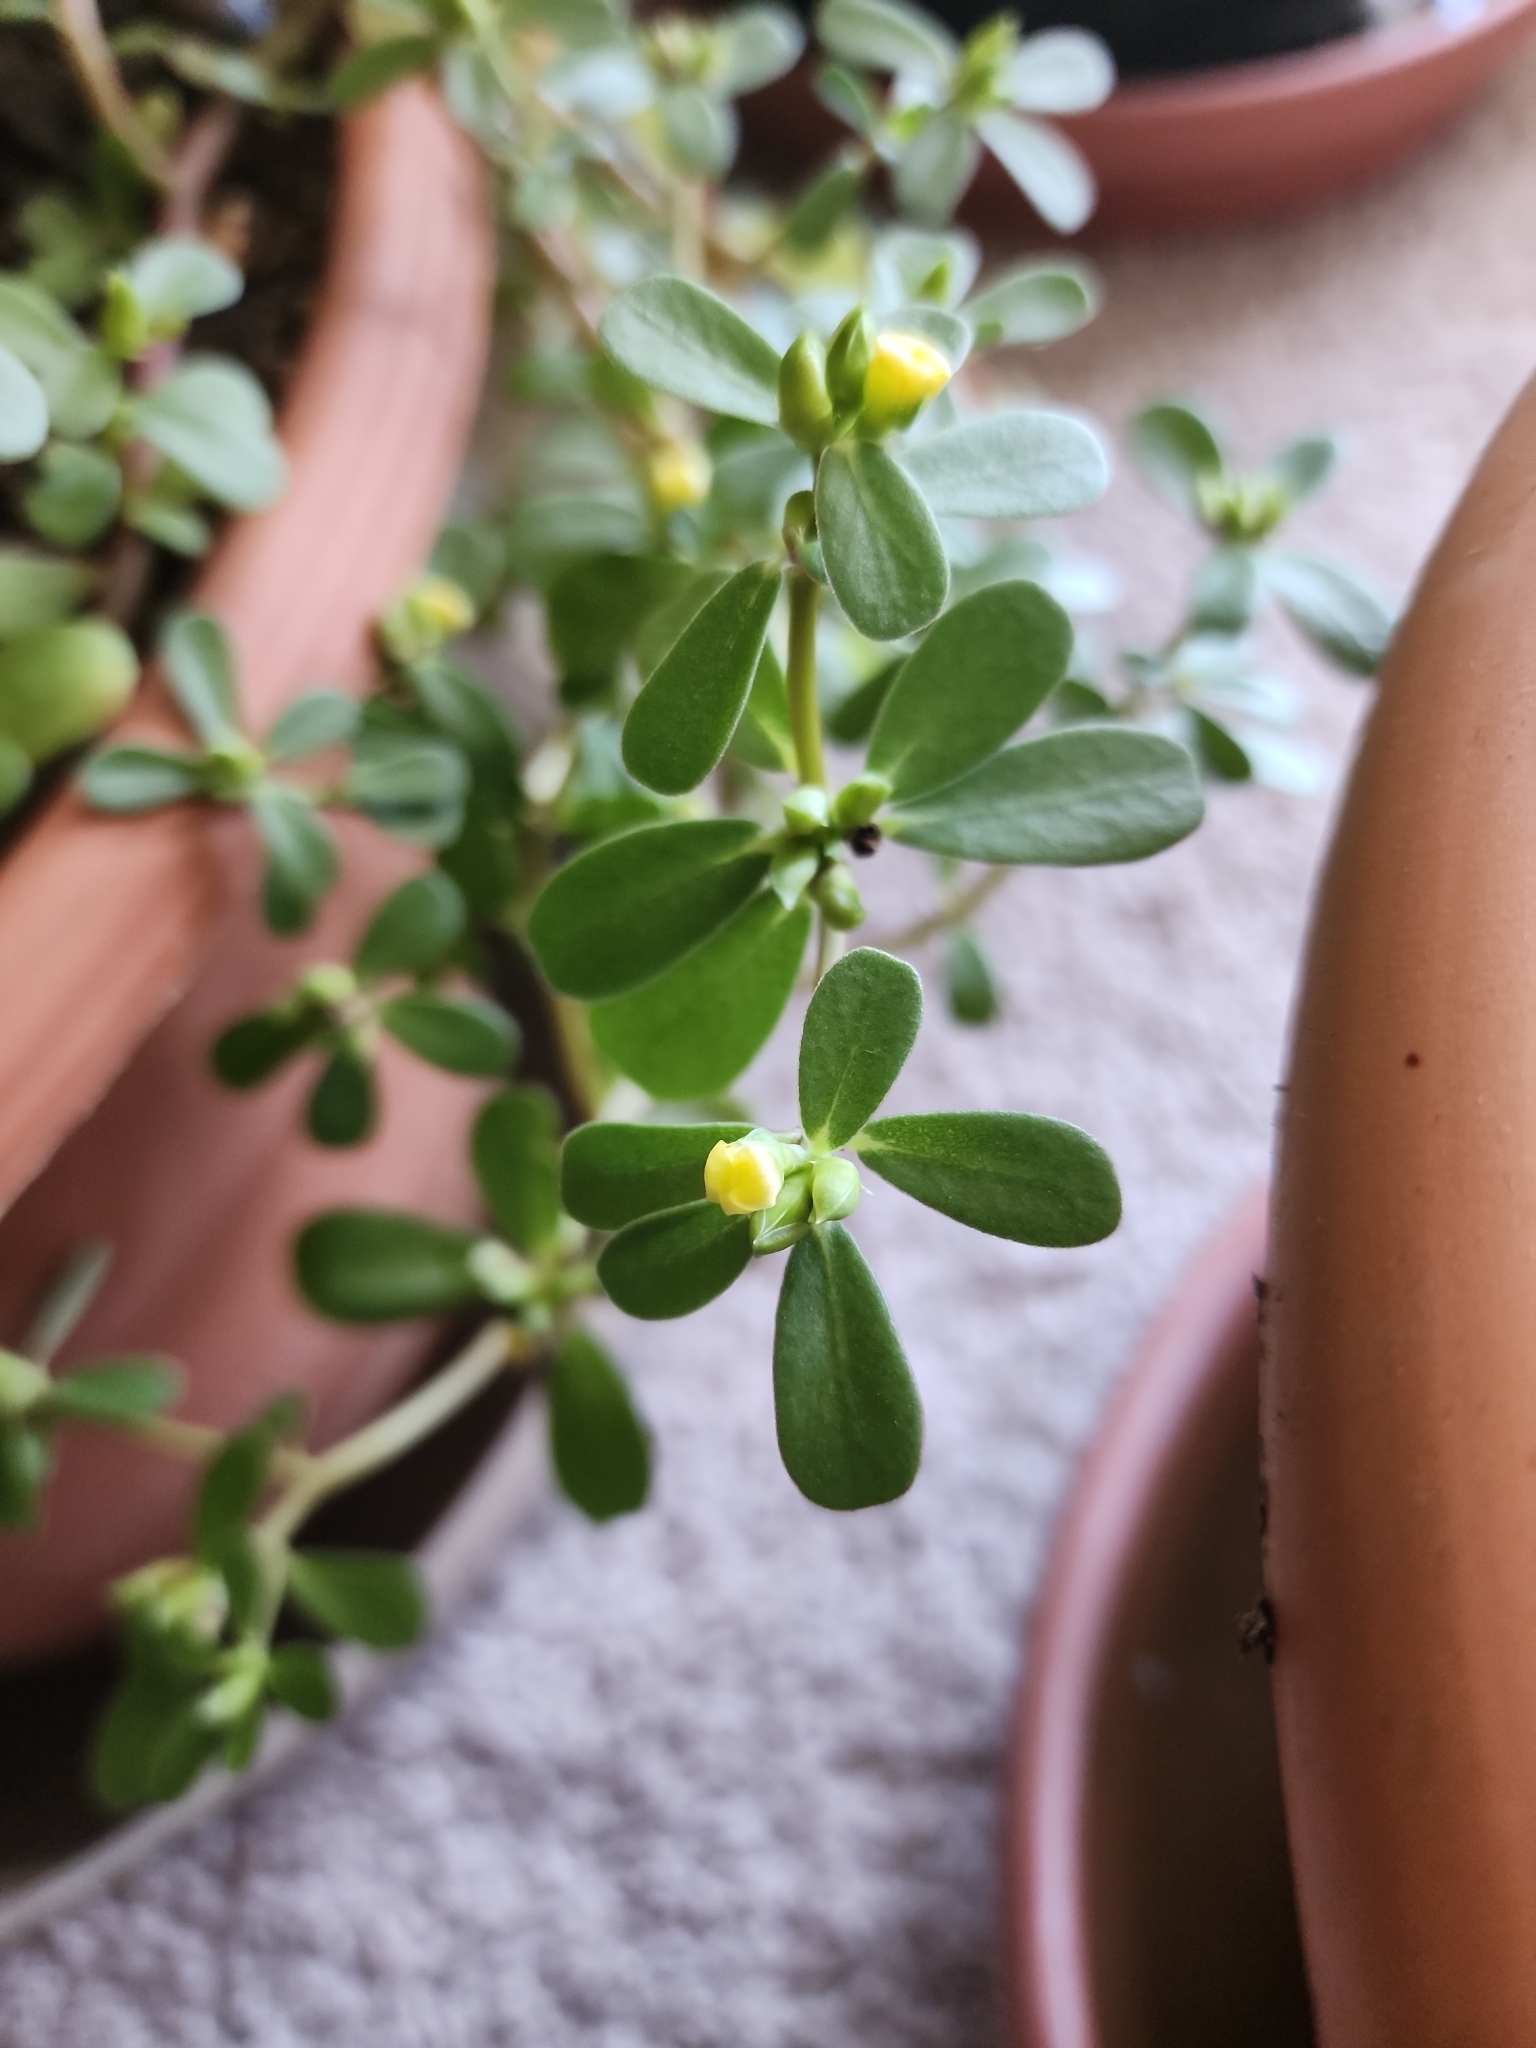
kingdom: Plantae
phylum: Tracheophyta
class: Magnoliopsida
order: Caryophyllales
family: Portulacaceae
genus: Portulaca
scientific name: Portulaca oleracea
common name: Common purslane
